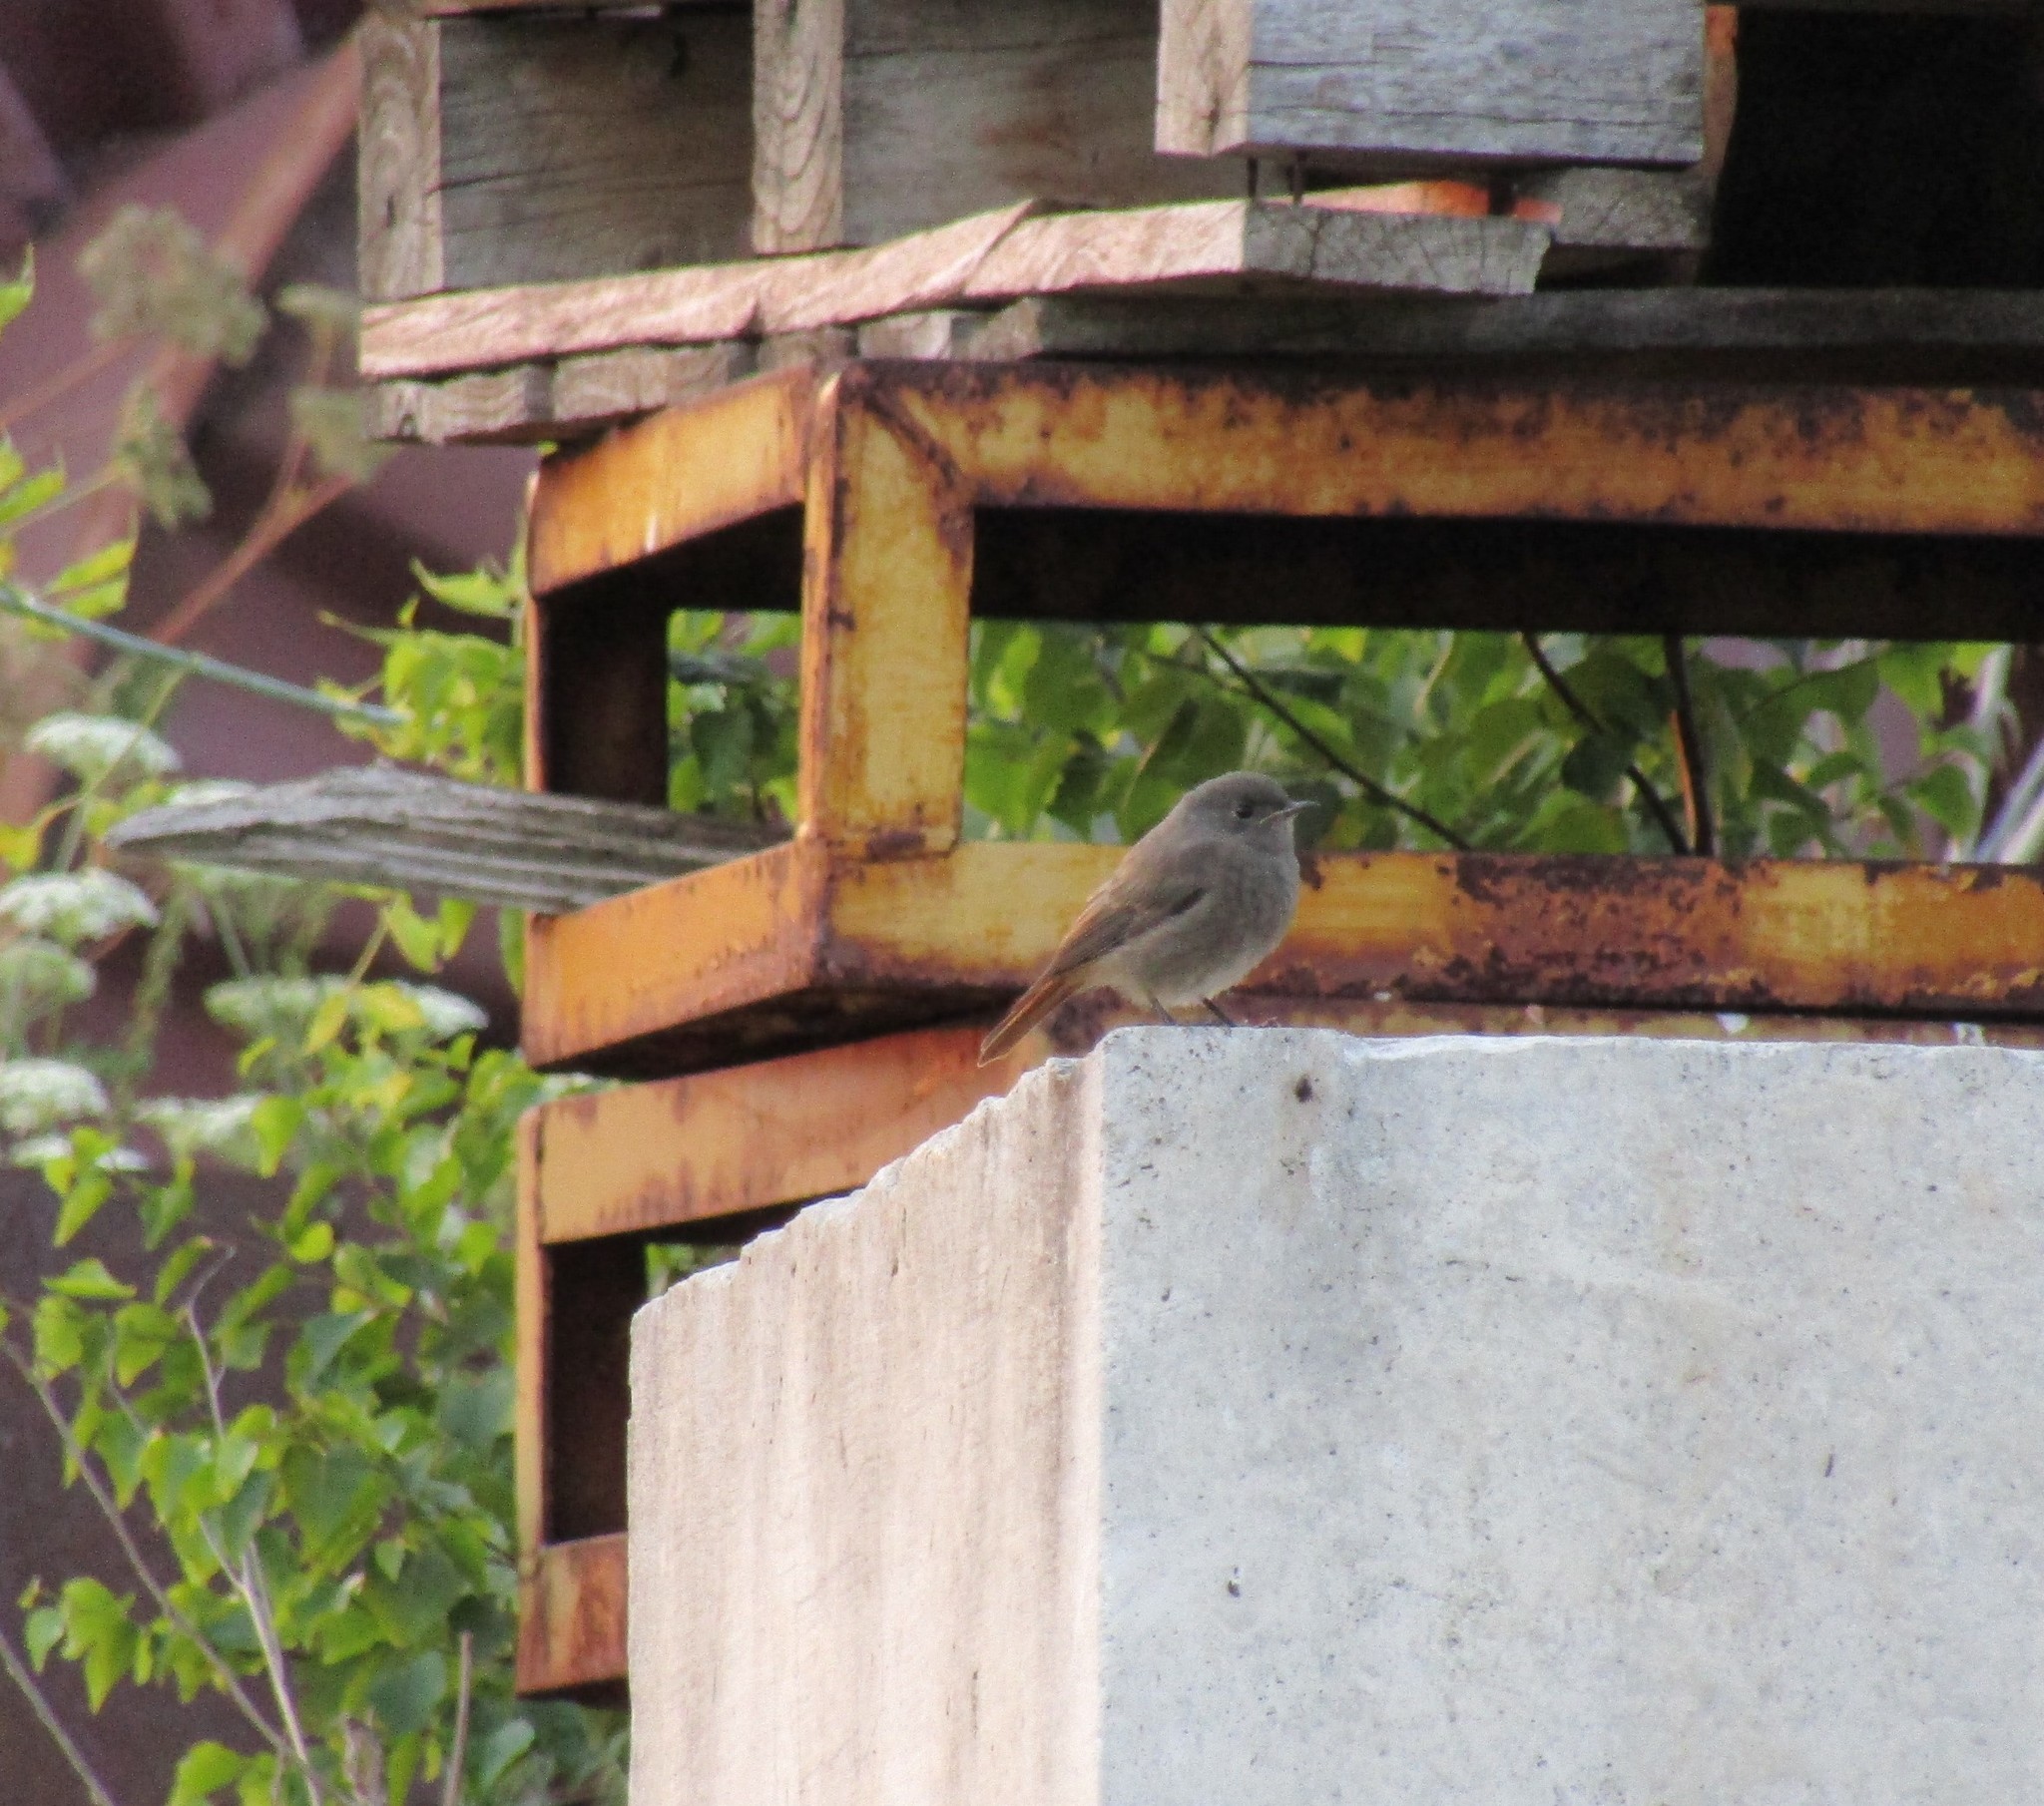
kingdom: Animalia
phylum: Chordata
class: Aves
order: Passeriformes
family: Muscicapidae
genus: Phoenicurus
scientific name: Phoenicurus ochruros
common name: Black redstart
